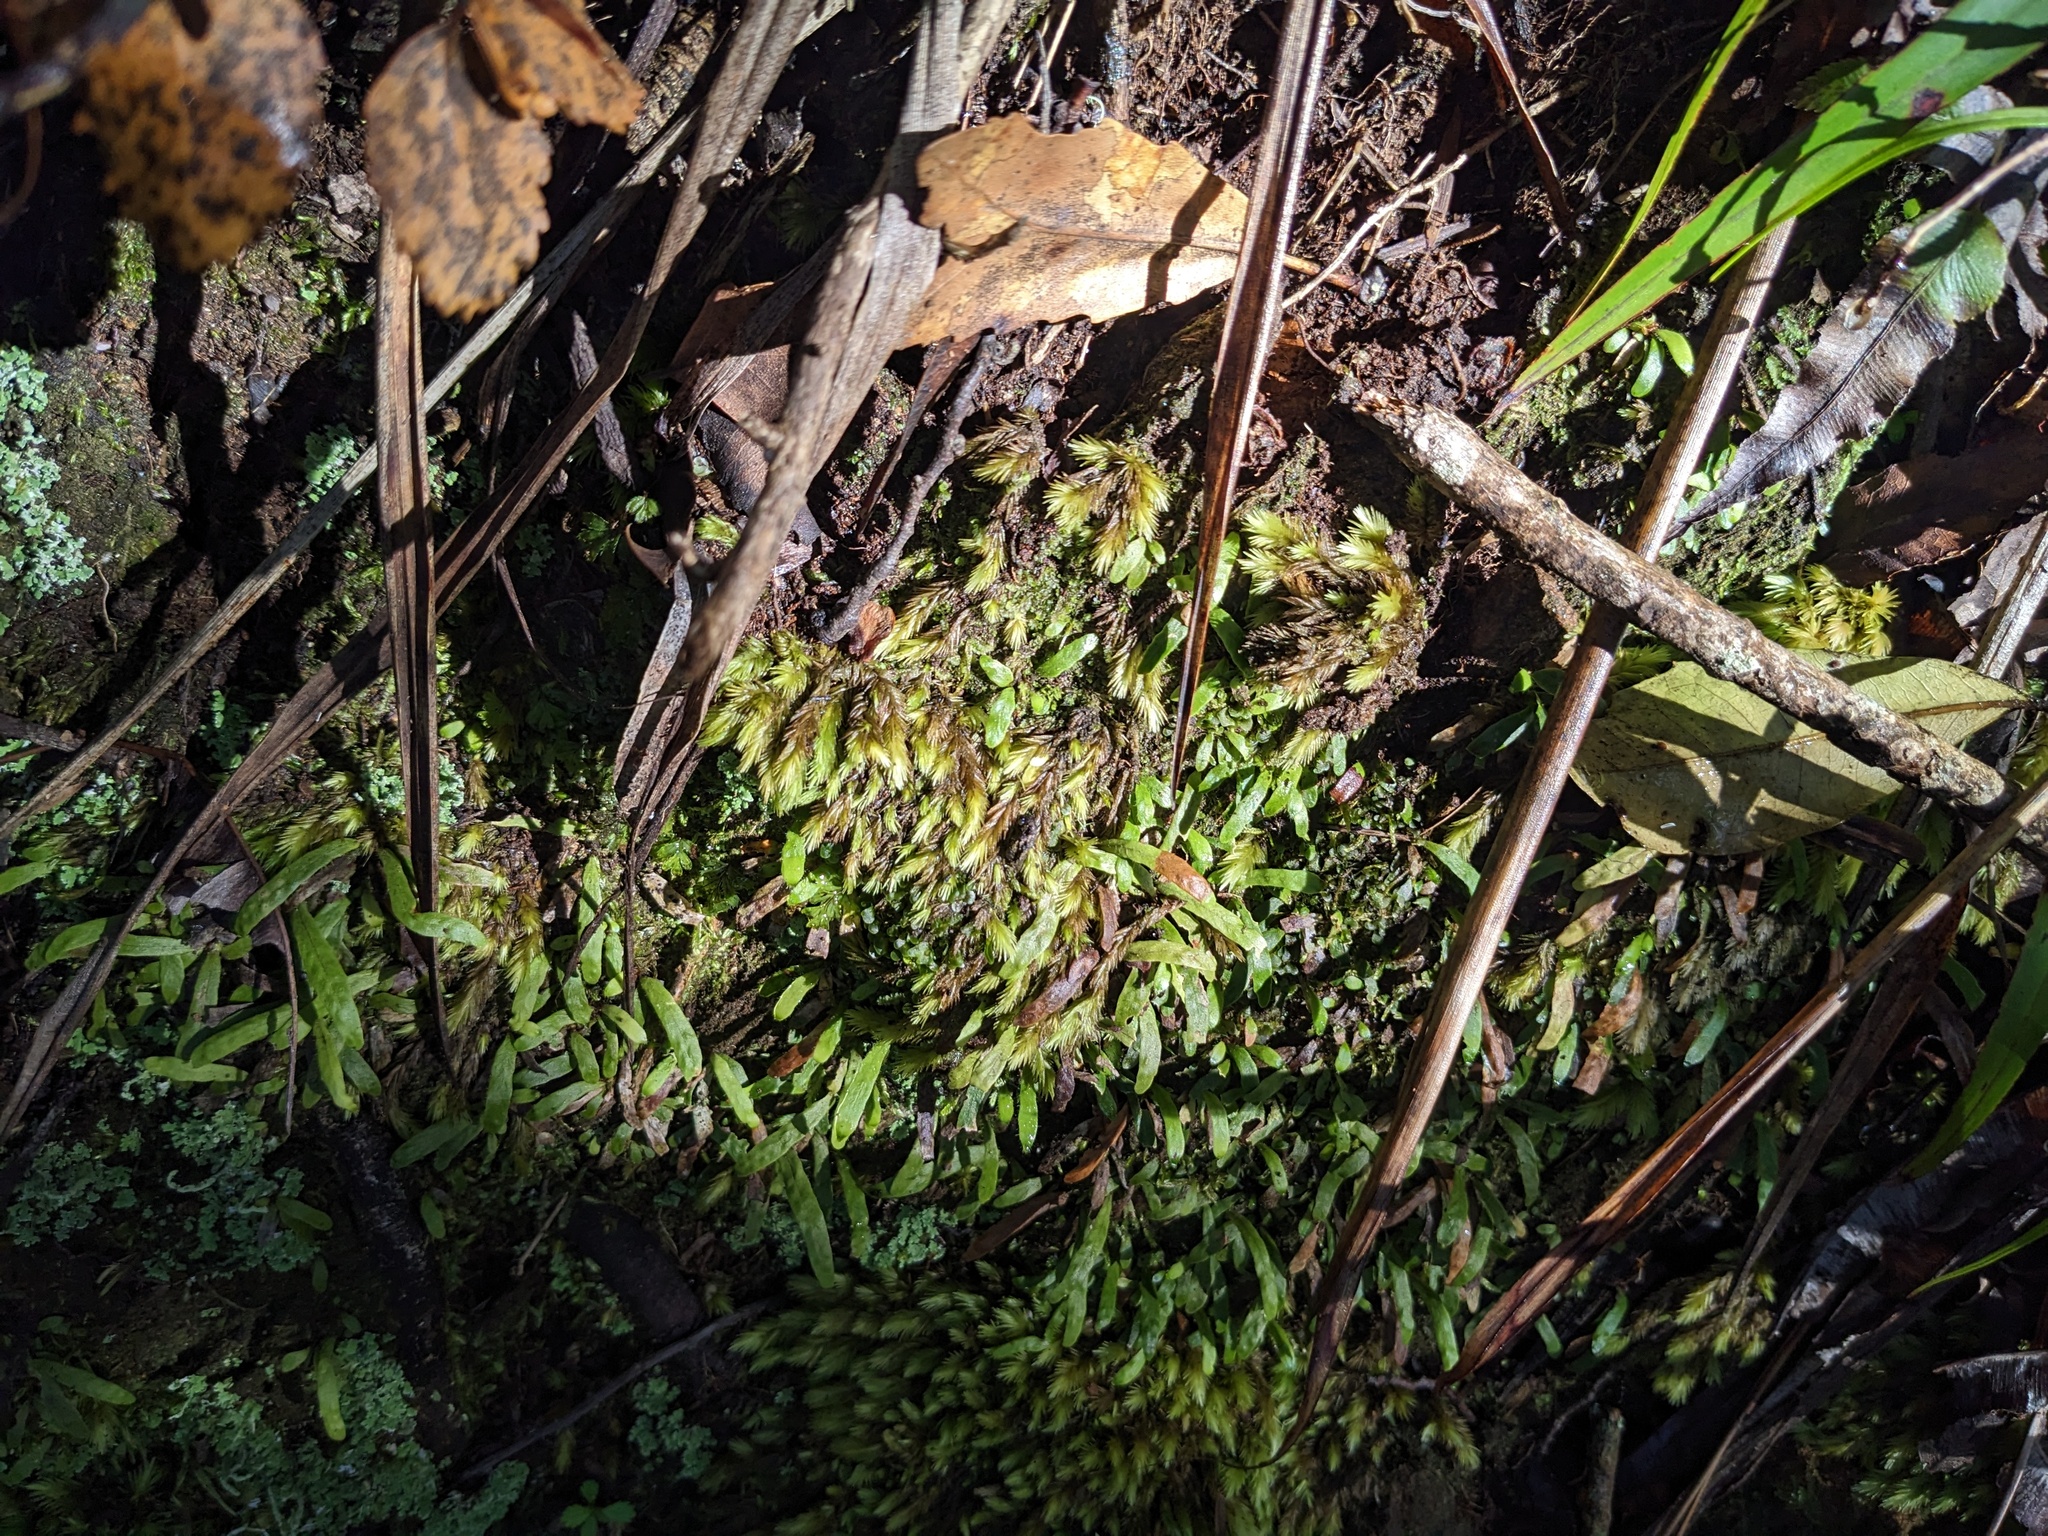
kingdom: Plantae
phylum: Tracheophyta
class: Polypodiopsida
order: Polypodiales
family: Polypodiaceae
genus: Notogrammitis
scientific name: Notogrammitis ciliata
